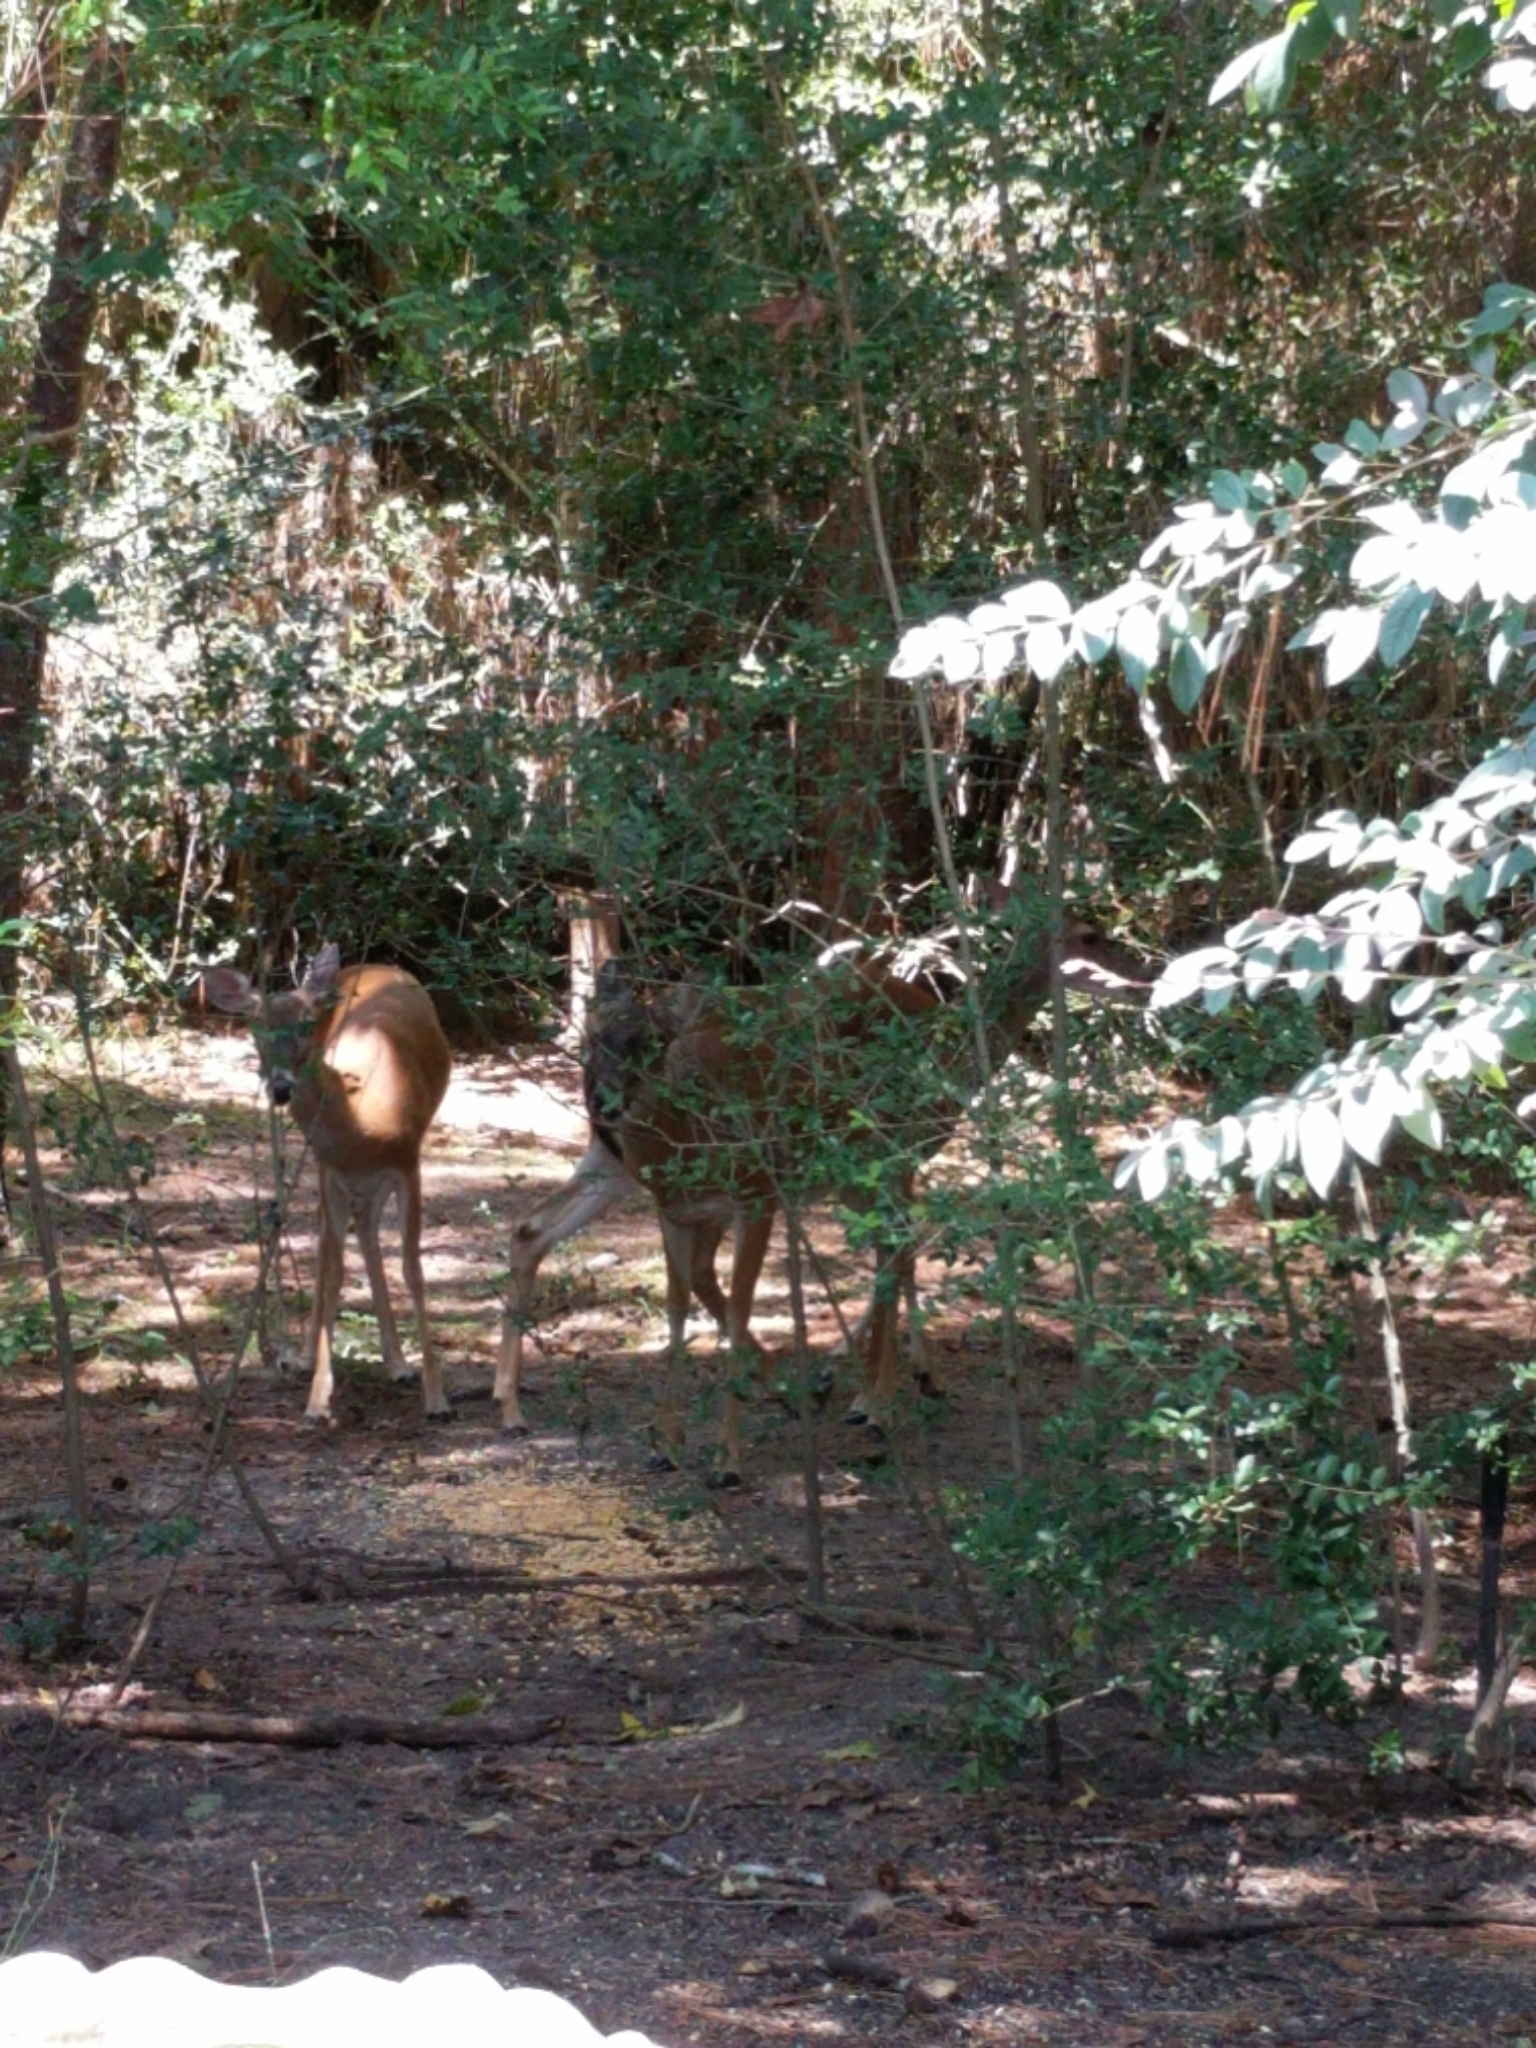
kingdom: Animalia
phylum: Chordata
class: Mammalia
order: Artiodactyla
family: Cervidae
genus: Odocoileus
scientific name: Odocoileus virginianus
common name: White-tailed deer
